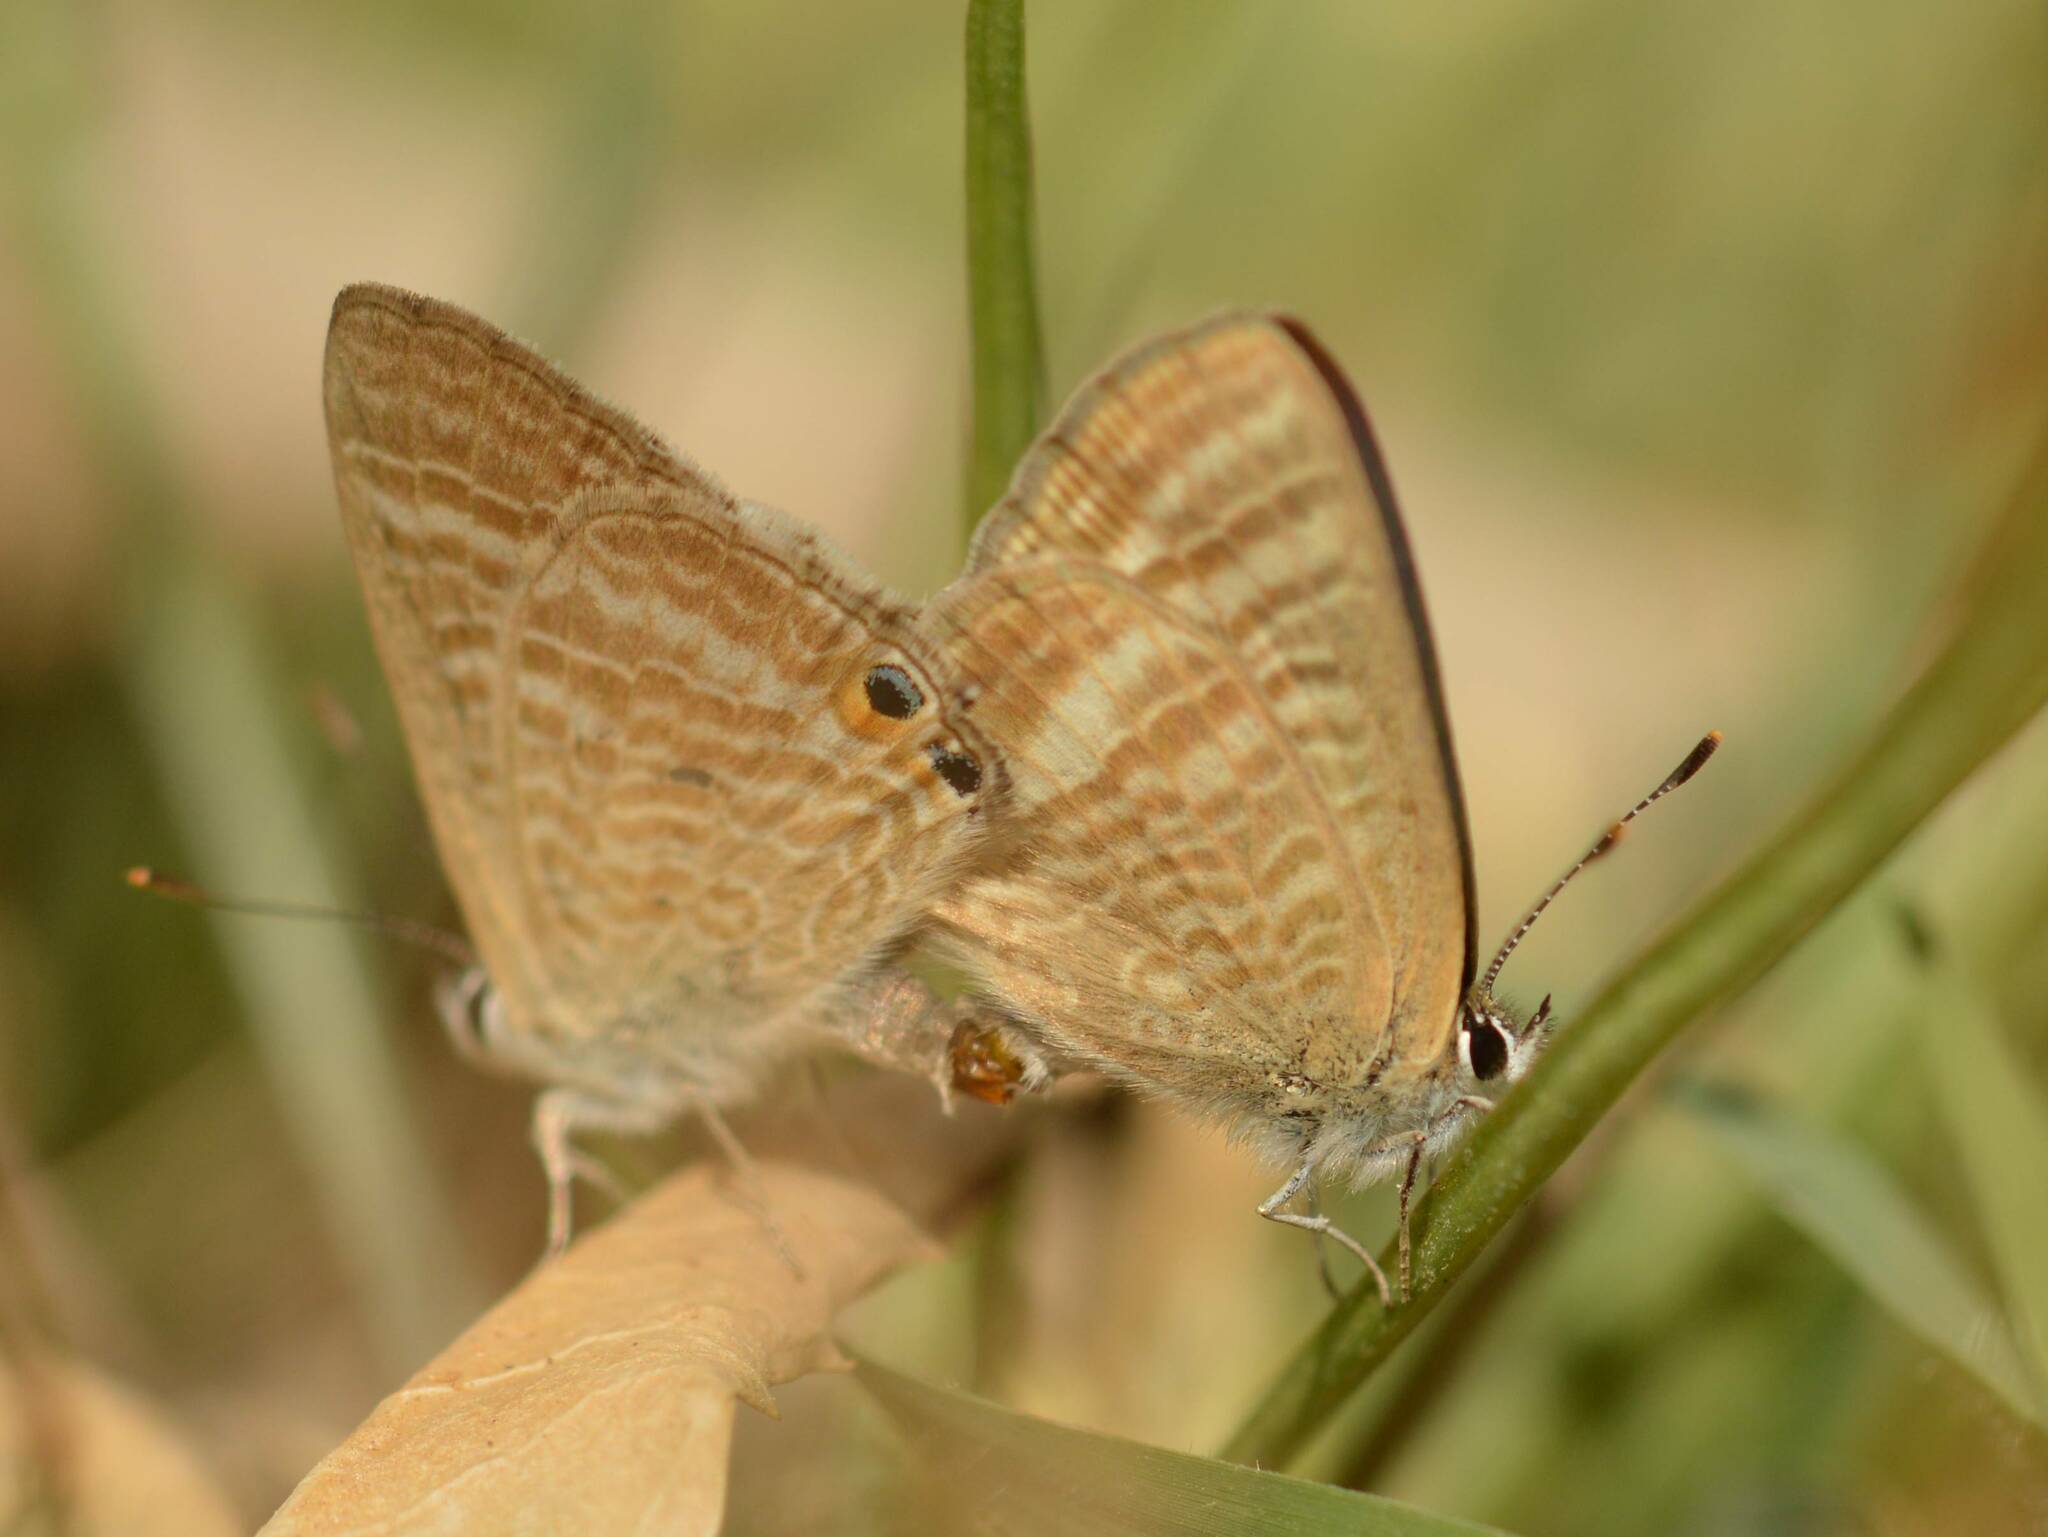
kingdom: Animalia
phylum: Arthropoda
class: Insecta
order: Lepidoptera
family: Lycaenidae
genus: Lampides
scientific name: Lampides boeticus
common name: Long-tailed blue
